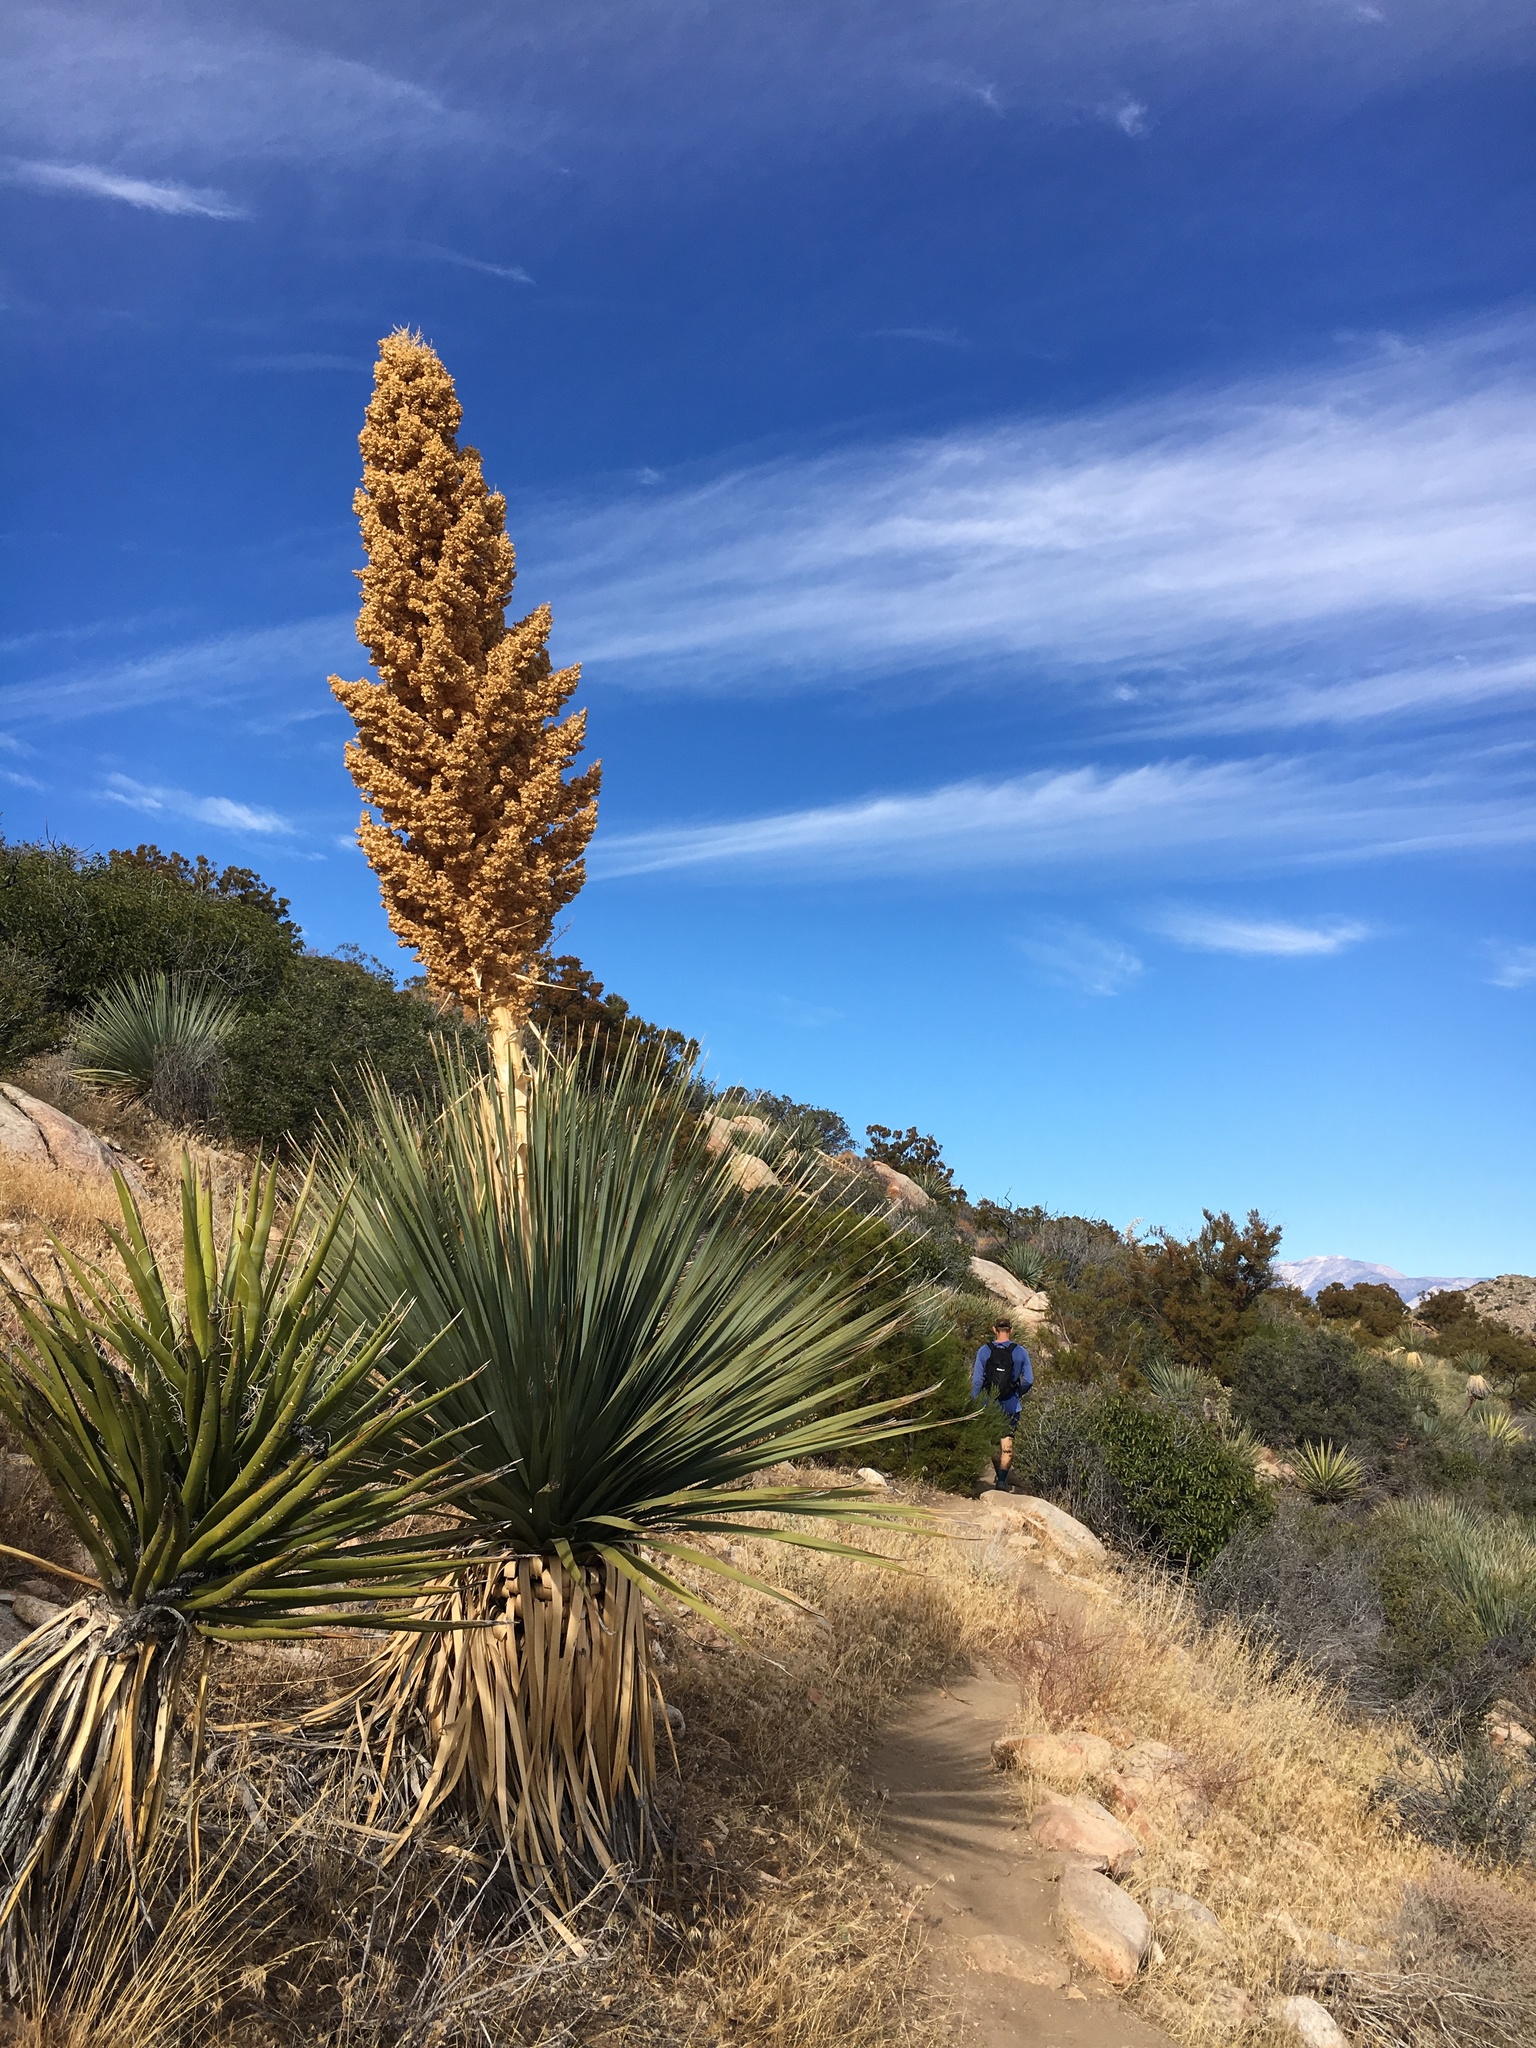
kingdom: Plantae
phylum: Tracheophyta
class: Liliopsida
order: Asparagales
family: Asparagaceae
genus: Nolina
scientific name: Nolina parryi
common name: Parry nolina
